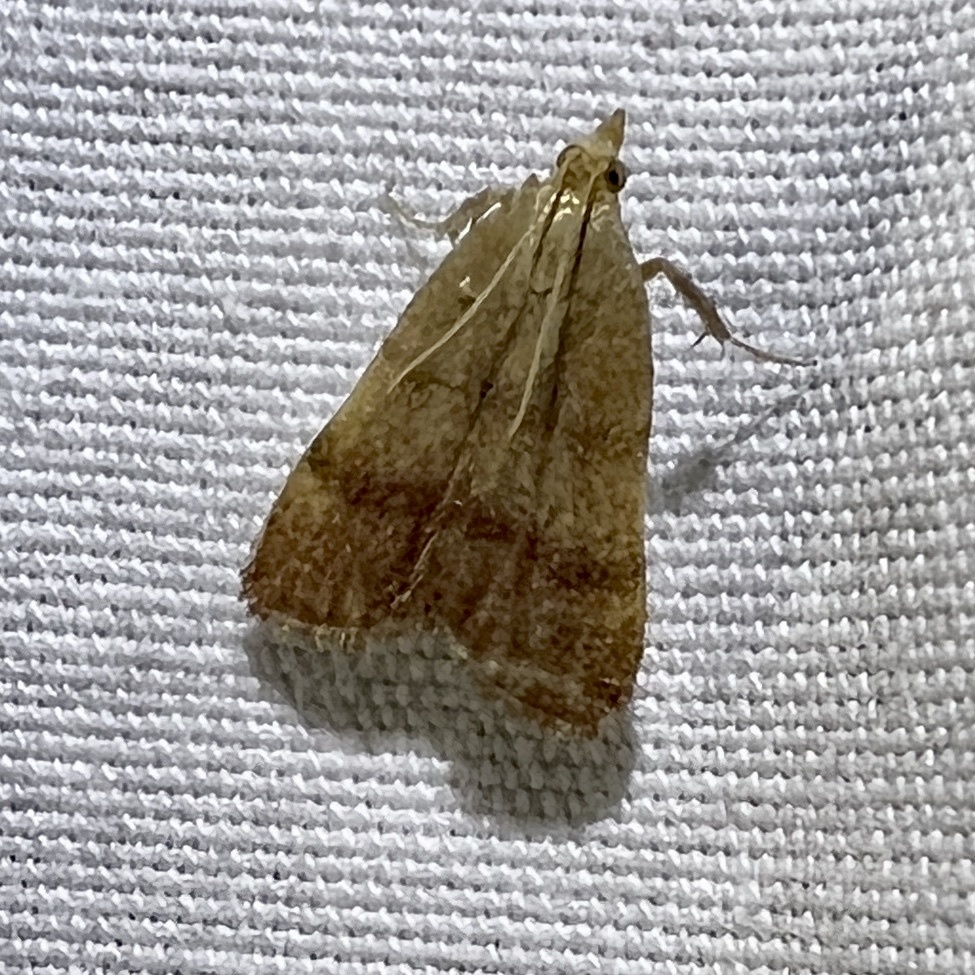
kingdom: Animalia
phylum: Arthropoda
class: Insecta
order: Lepidoptera
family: Pyralidae
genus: Condylolomia
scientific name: Condylolomia participialis
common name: Drab condylolomia moth
